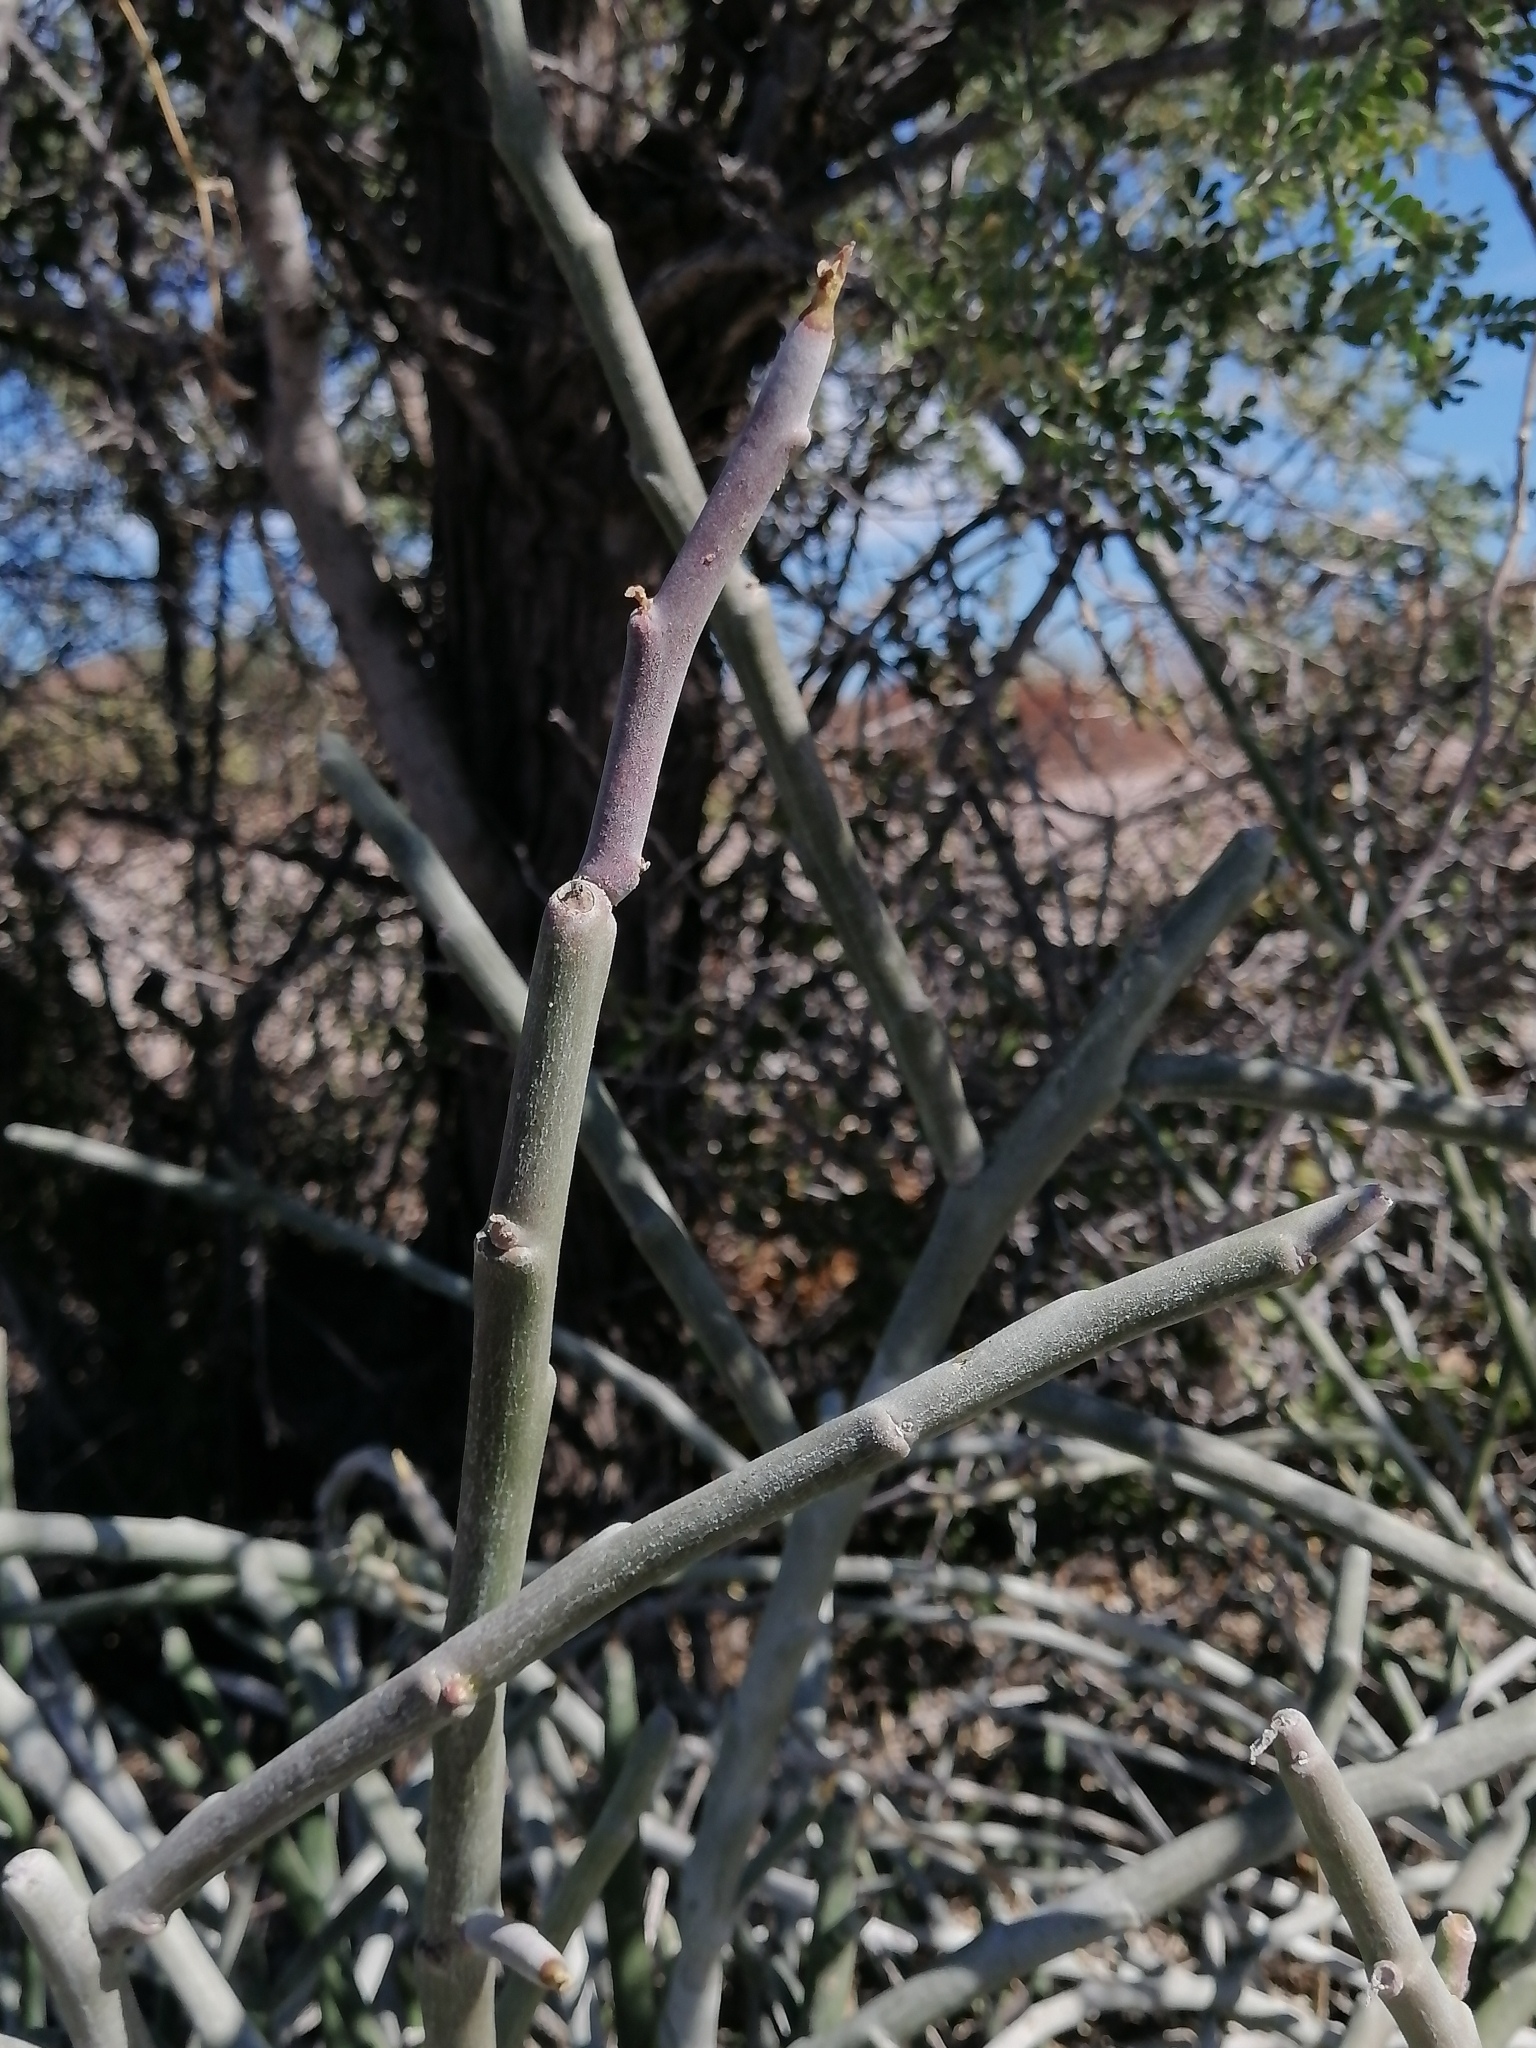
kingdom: Plantae
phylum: Tracheophyta
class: Magnoliopsida
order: Malpighiales
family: Euphorbiaceae
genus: Euphorbia
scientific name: Euphorbia lomelii
